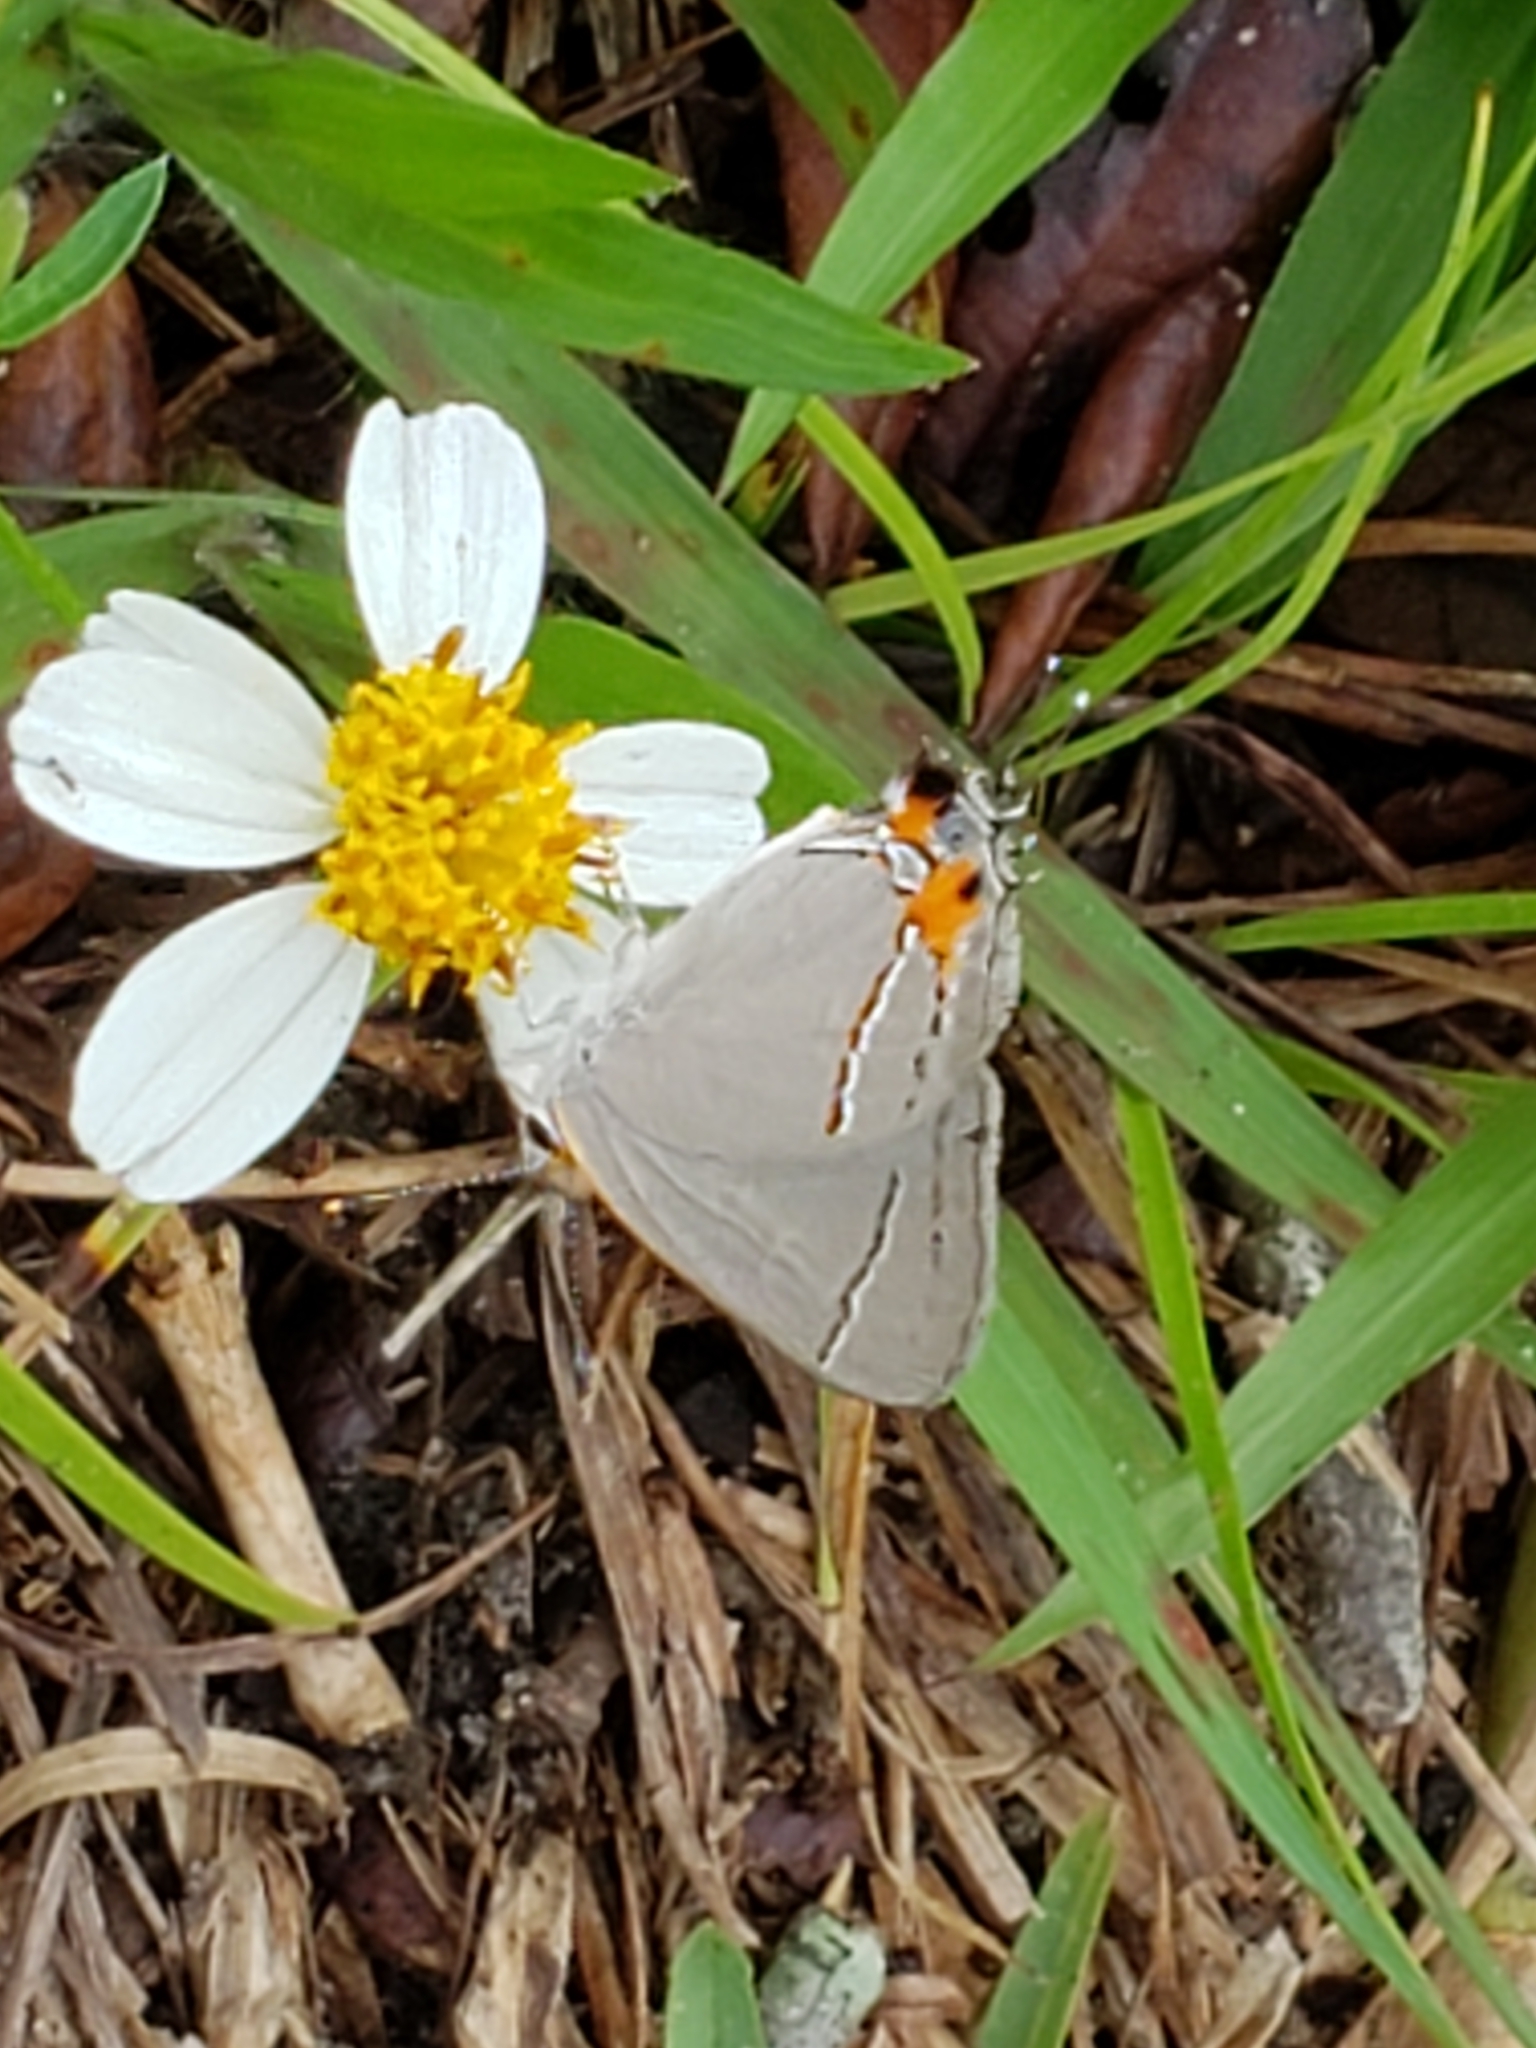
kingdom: Animalia
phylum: Arthropoda
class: Insecta
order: Lepidoptera
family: Lycaenidae
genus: Strymon
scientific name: Strymon melinus
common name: Gray hairstreak
